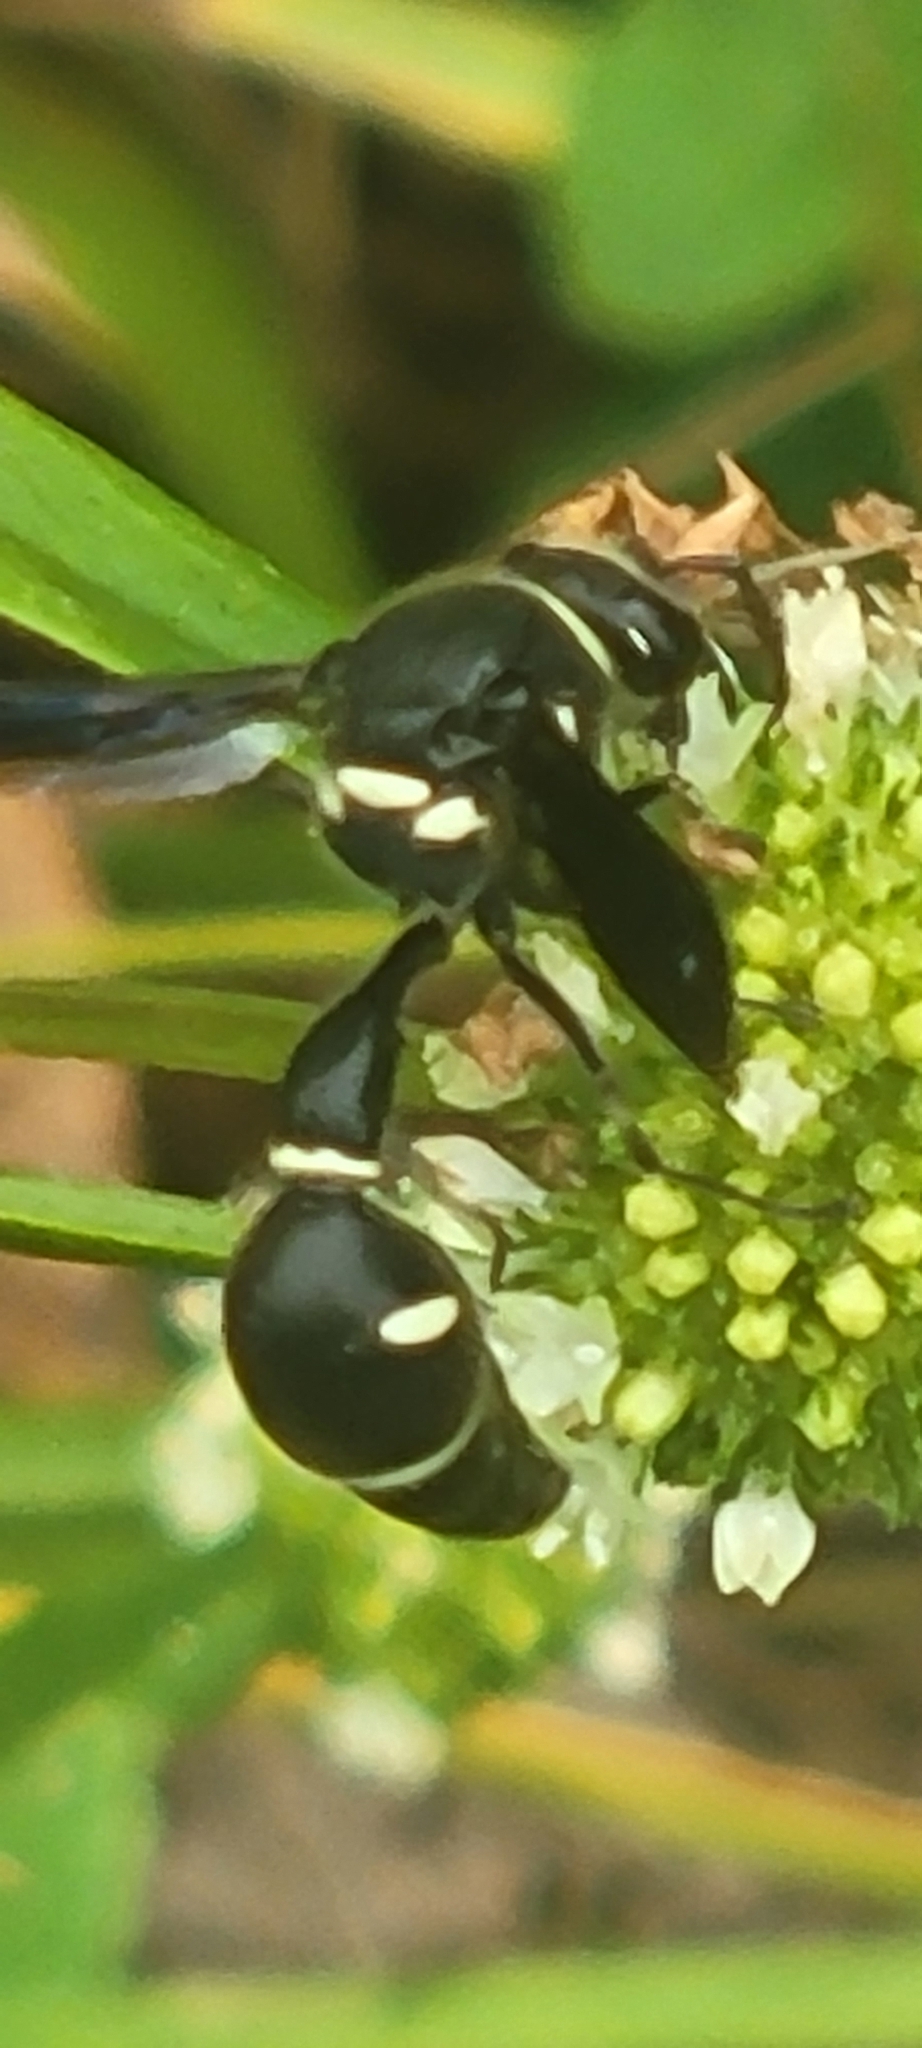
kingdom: Animalia
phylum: Arthropoda
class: Insecta
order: Hymenoptera
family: Vespidae
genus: Eumenes
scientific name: Eumenes fraternus
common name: Fraternal potter wasp
